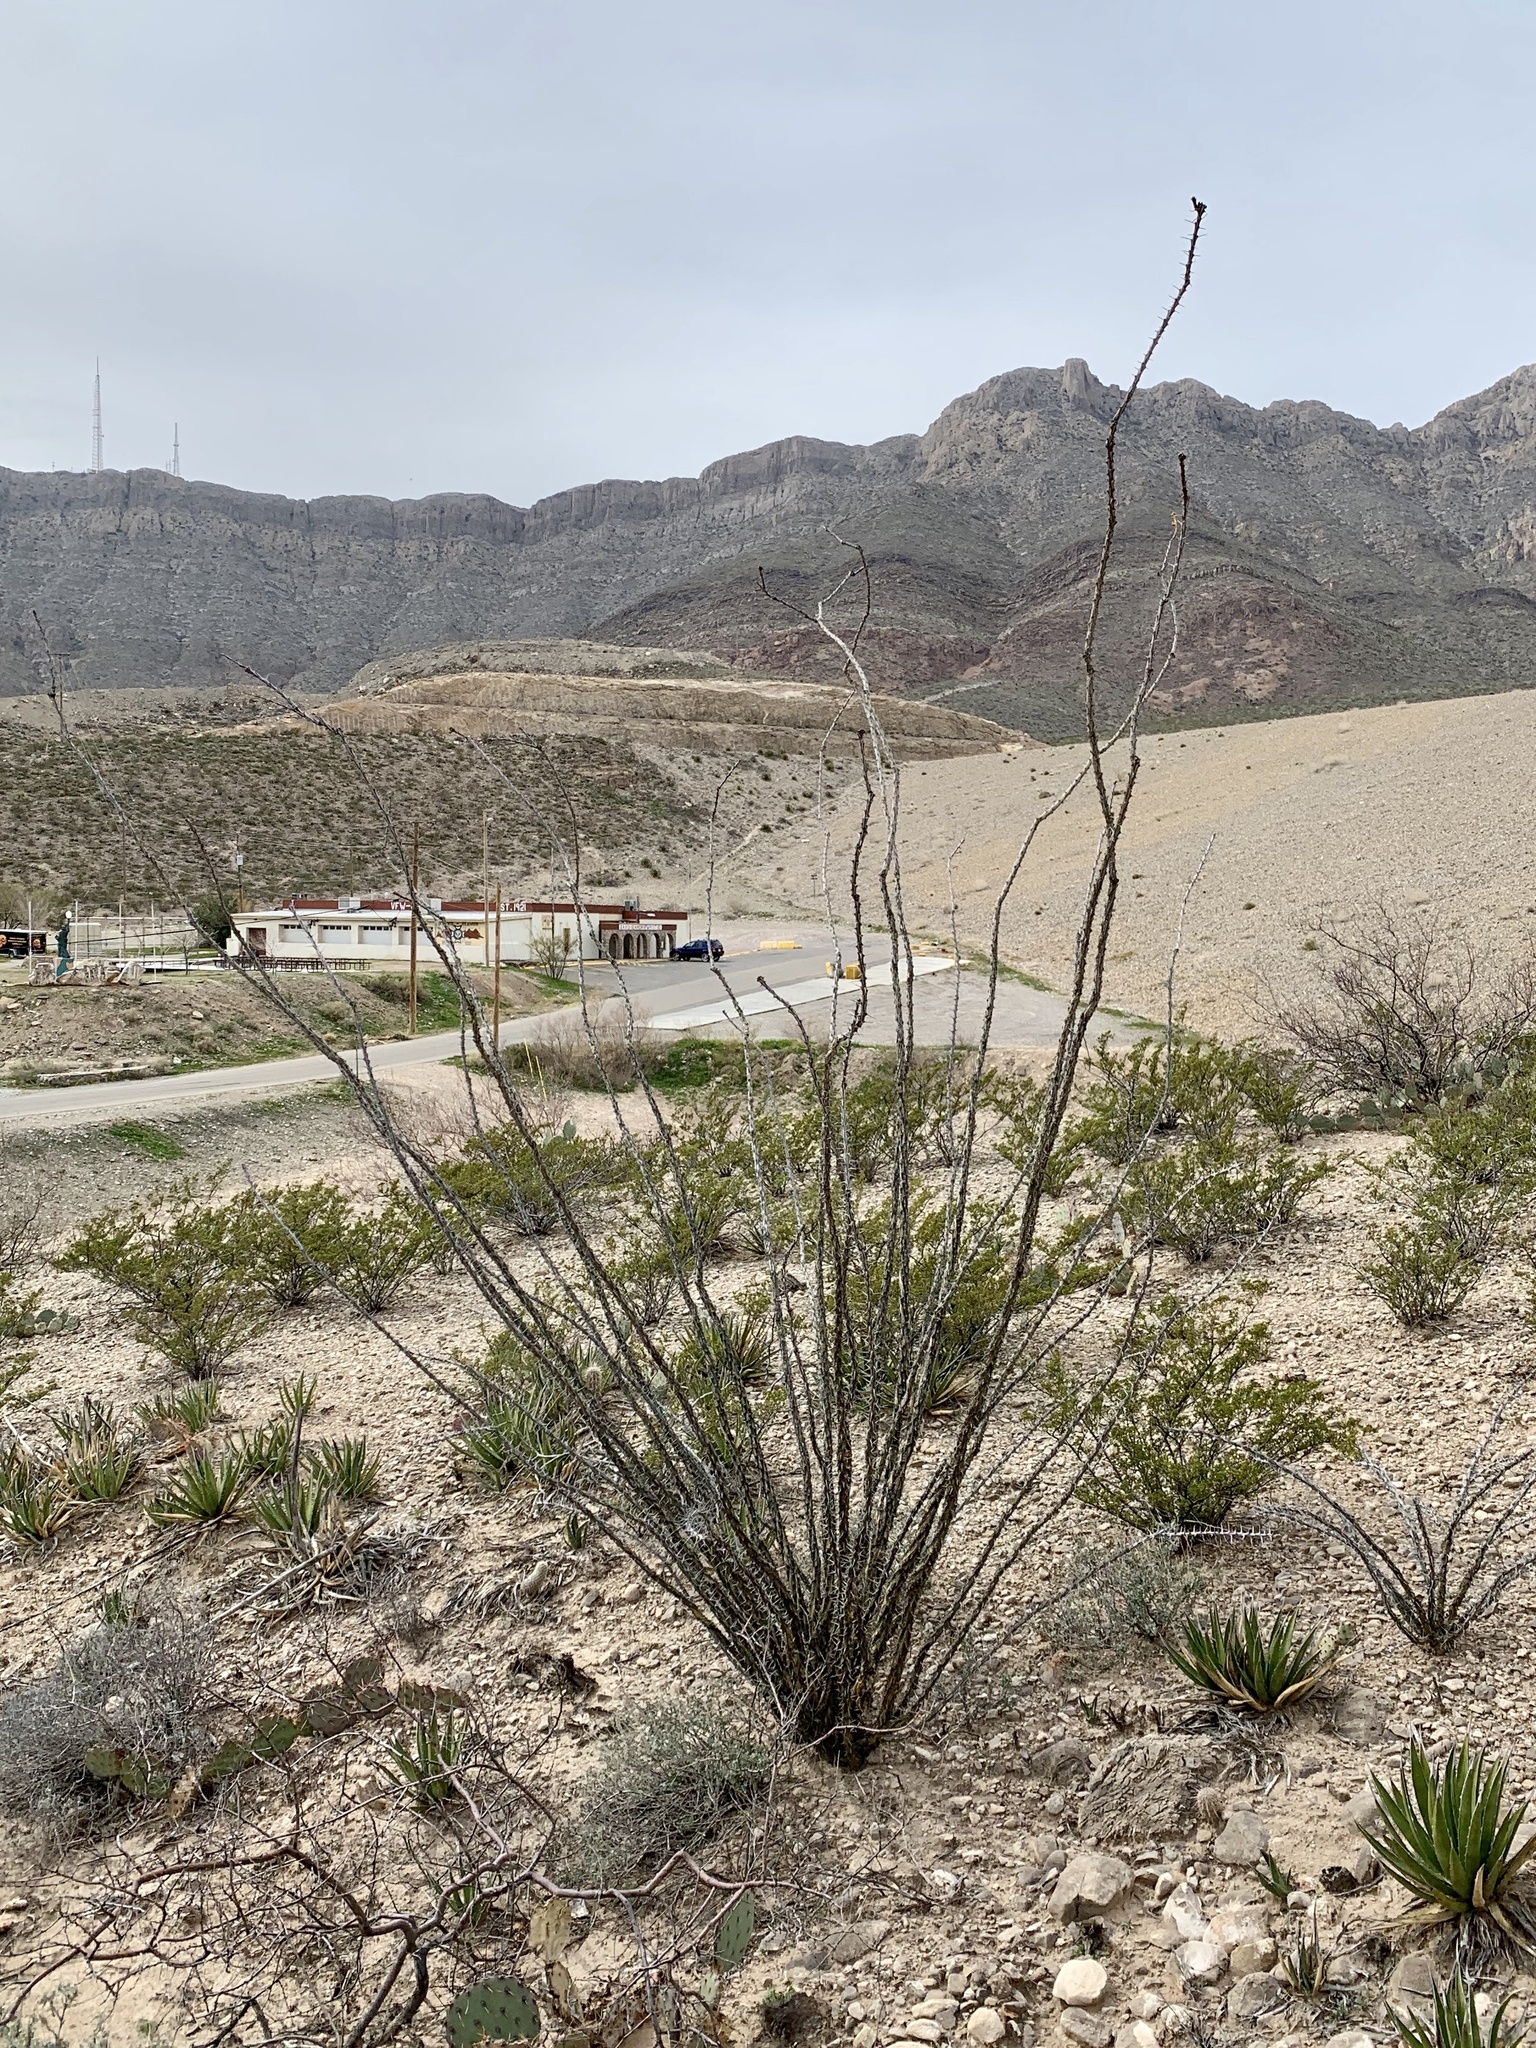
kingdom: Plantae
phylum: Tracheophyta
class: Magnoliopsida
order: Ericales
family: Fouquieriaceae
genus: Fouquieria
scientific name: Fouquieria splendens
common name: Vine-cactus
